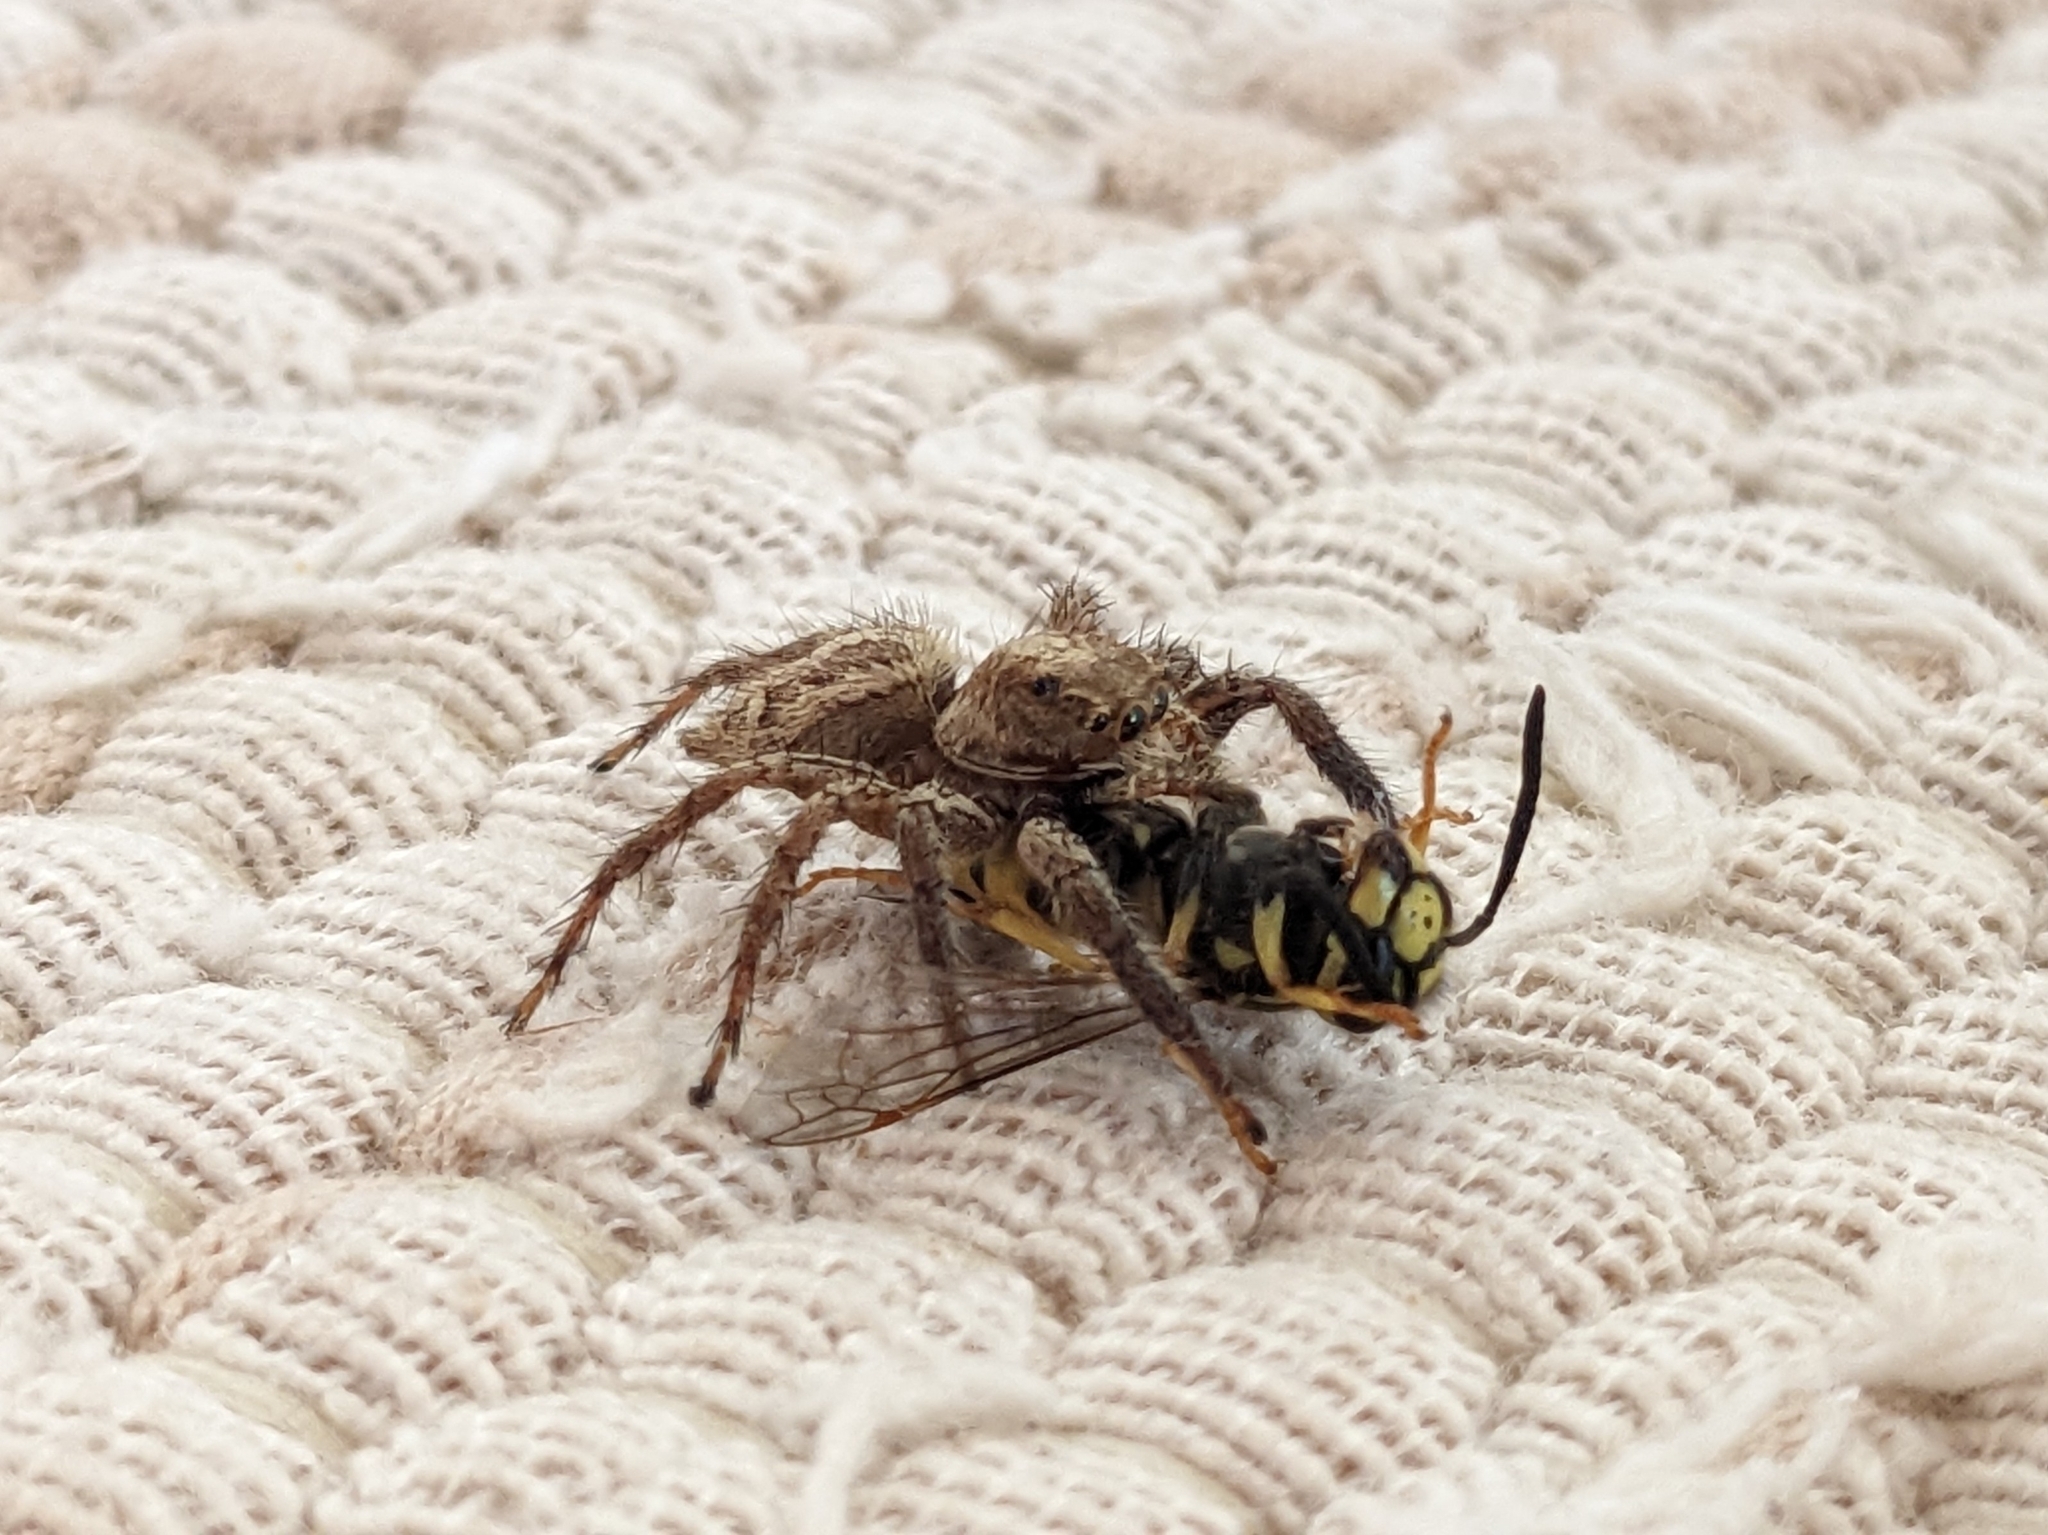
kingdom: Animalia
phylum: Arthropoda
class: Arachnida
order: Araneae
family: Salticidae
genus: Plexippus
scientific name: Plexippus paykulli
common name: Pantropical jumper
